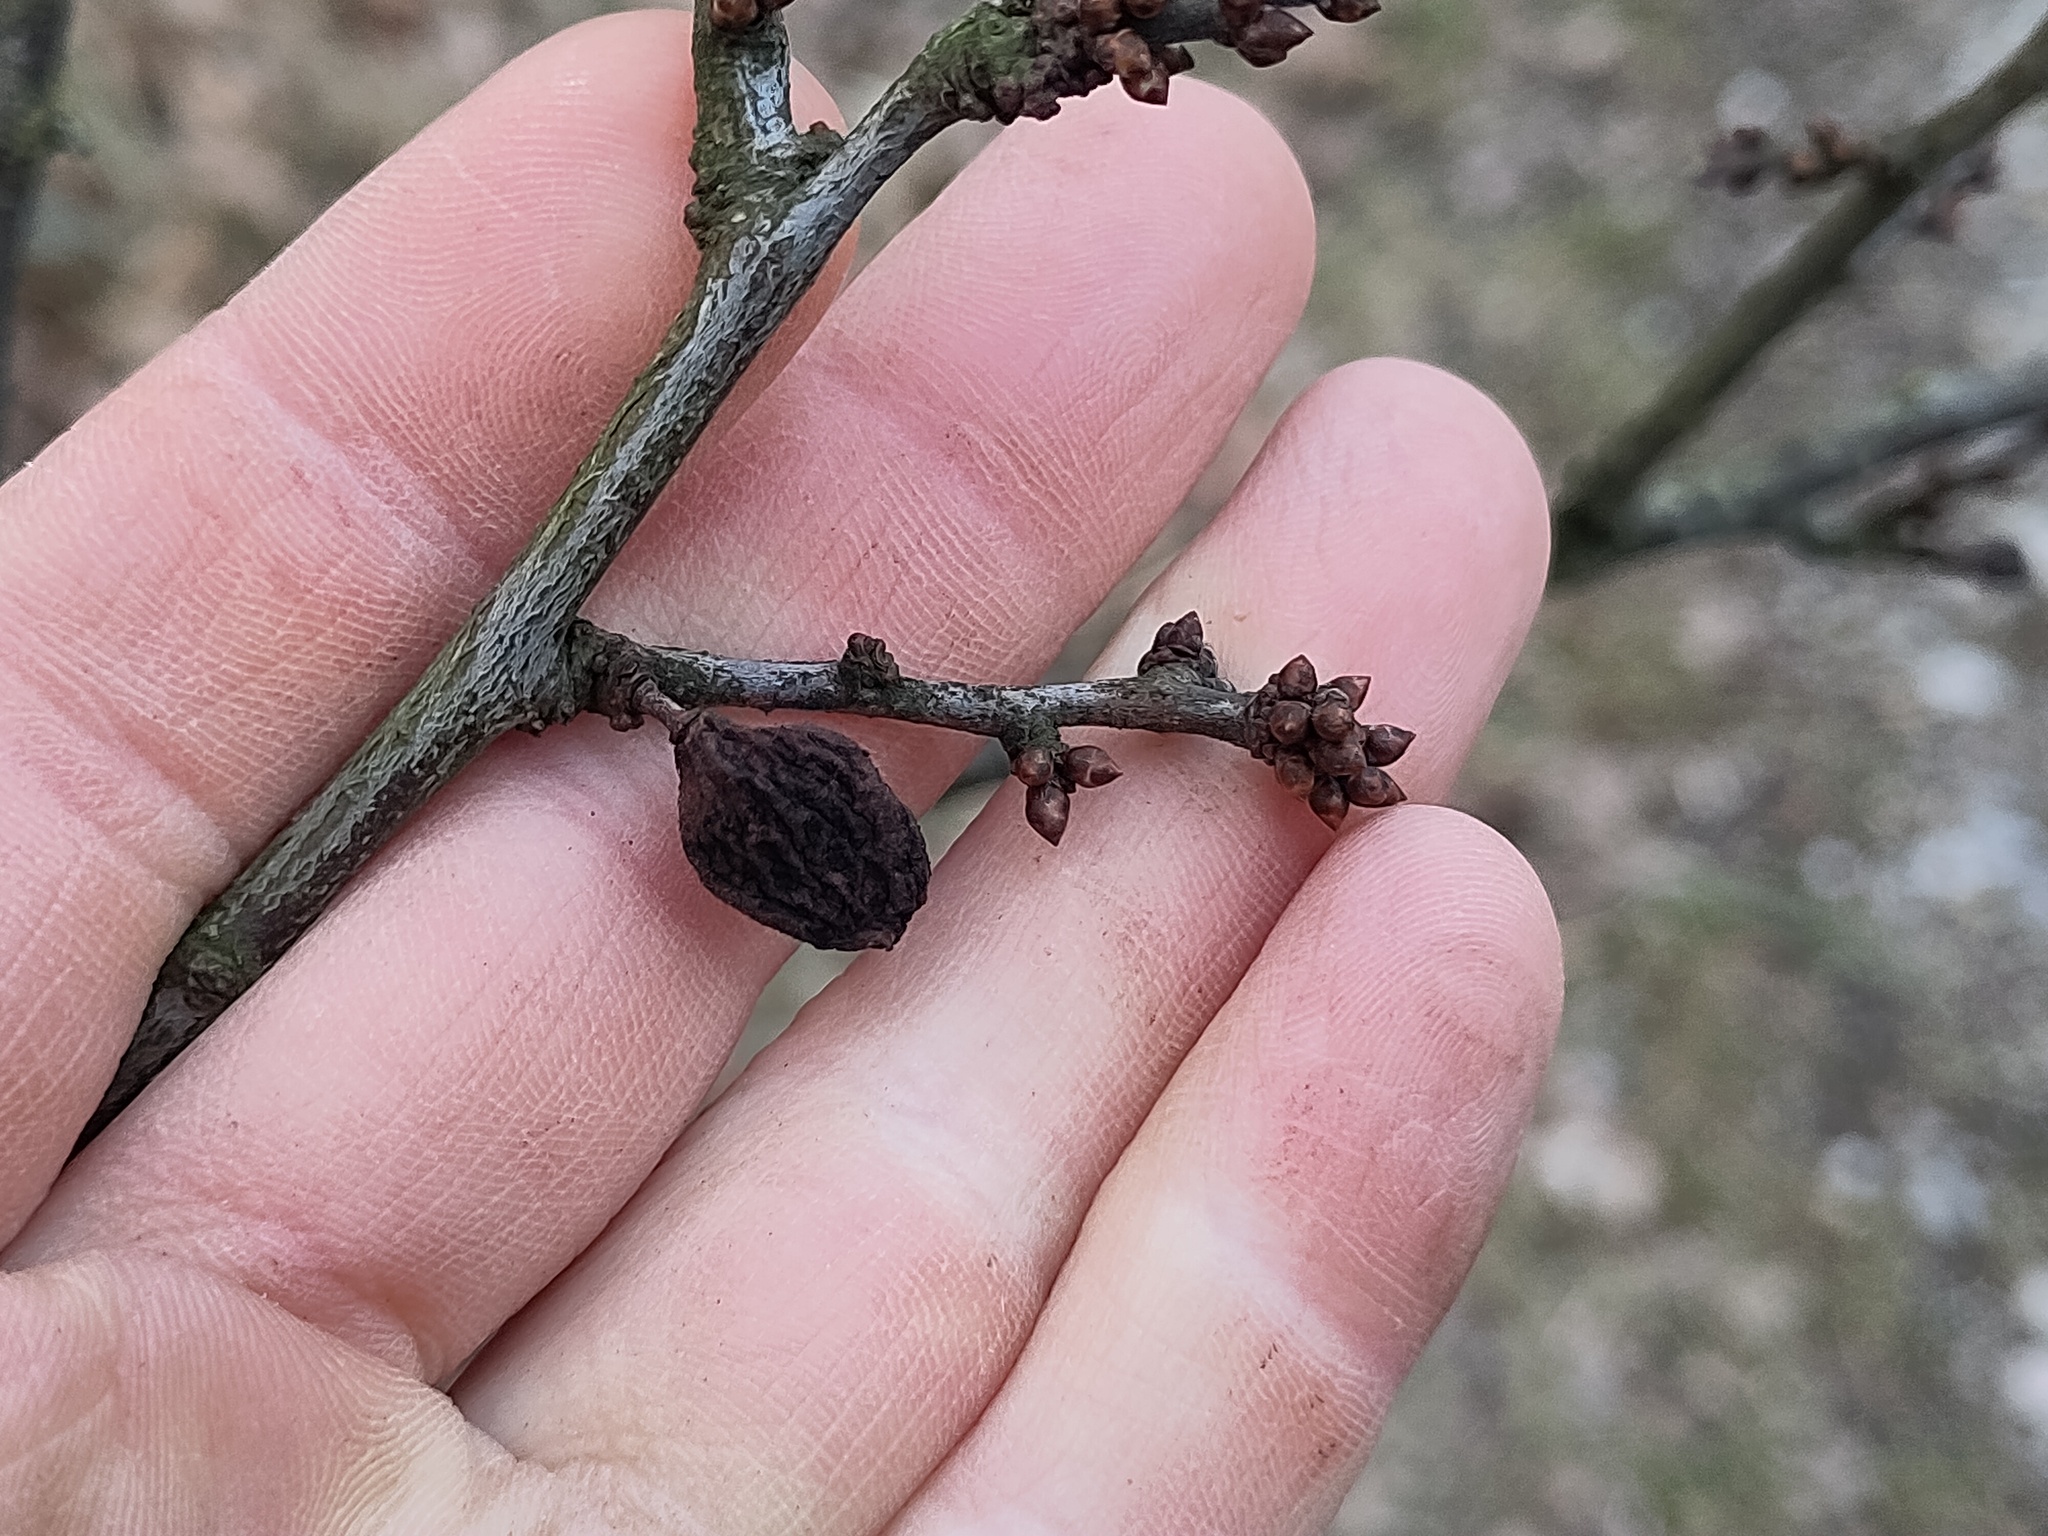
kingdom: Plantae
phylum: Tracheophyta
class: Magnoliopsida
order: Rosales
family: Rosaceae
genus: Prunus
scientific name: Prunus spinosa
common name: Blackthorn
